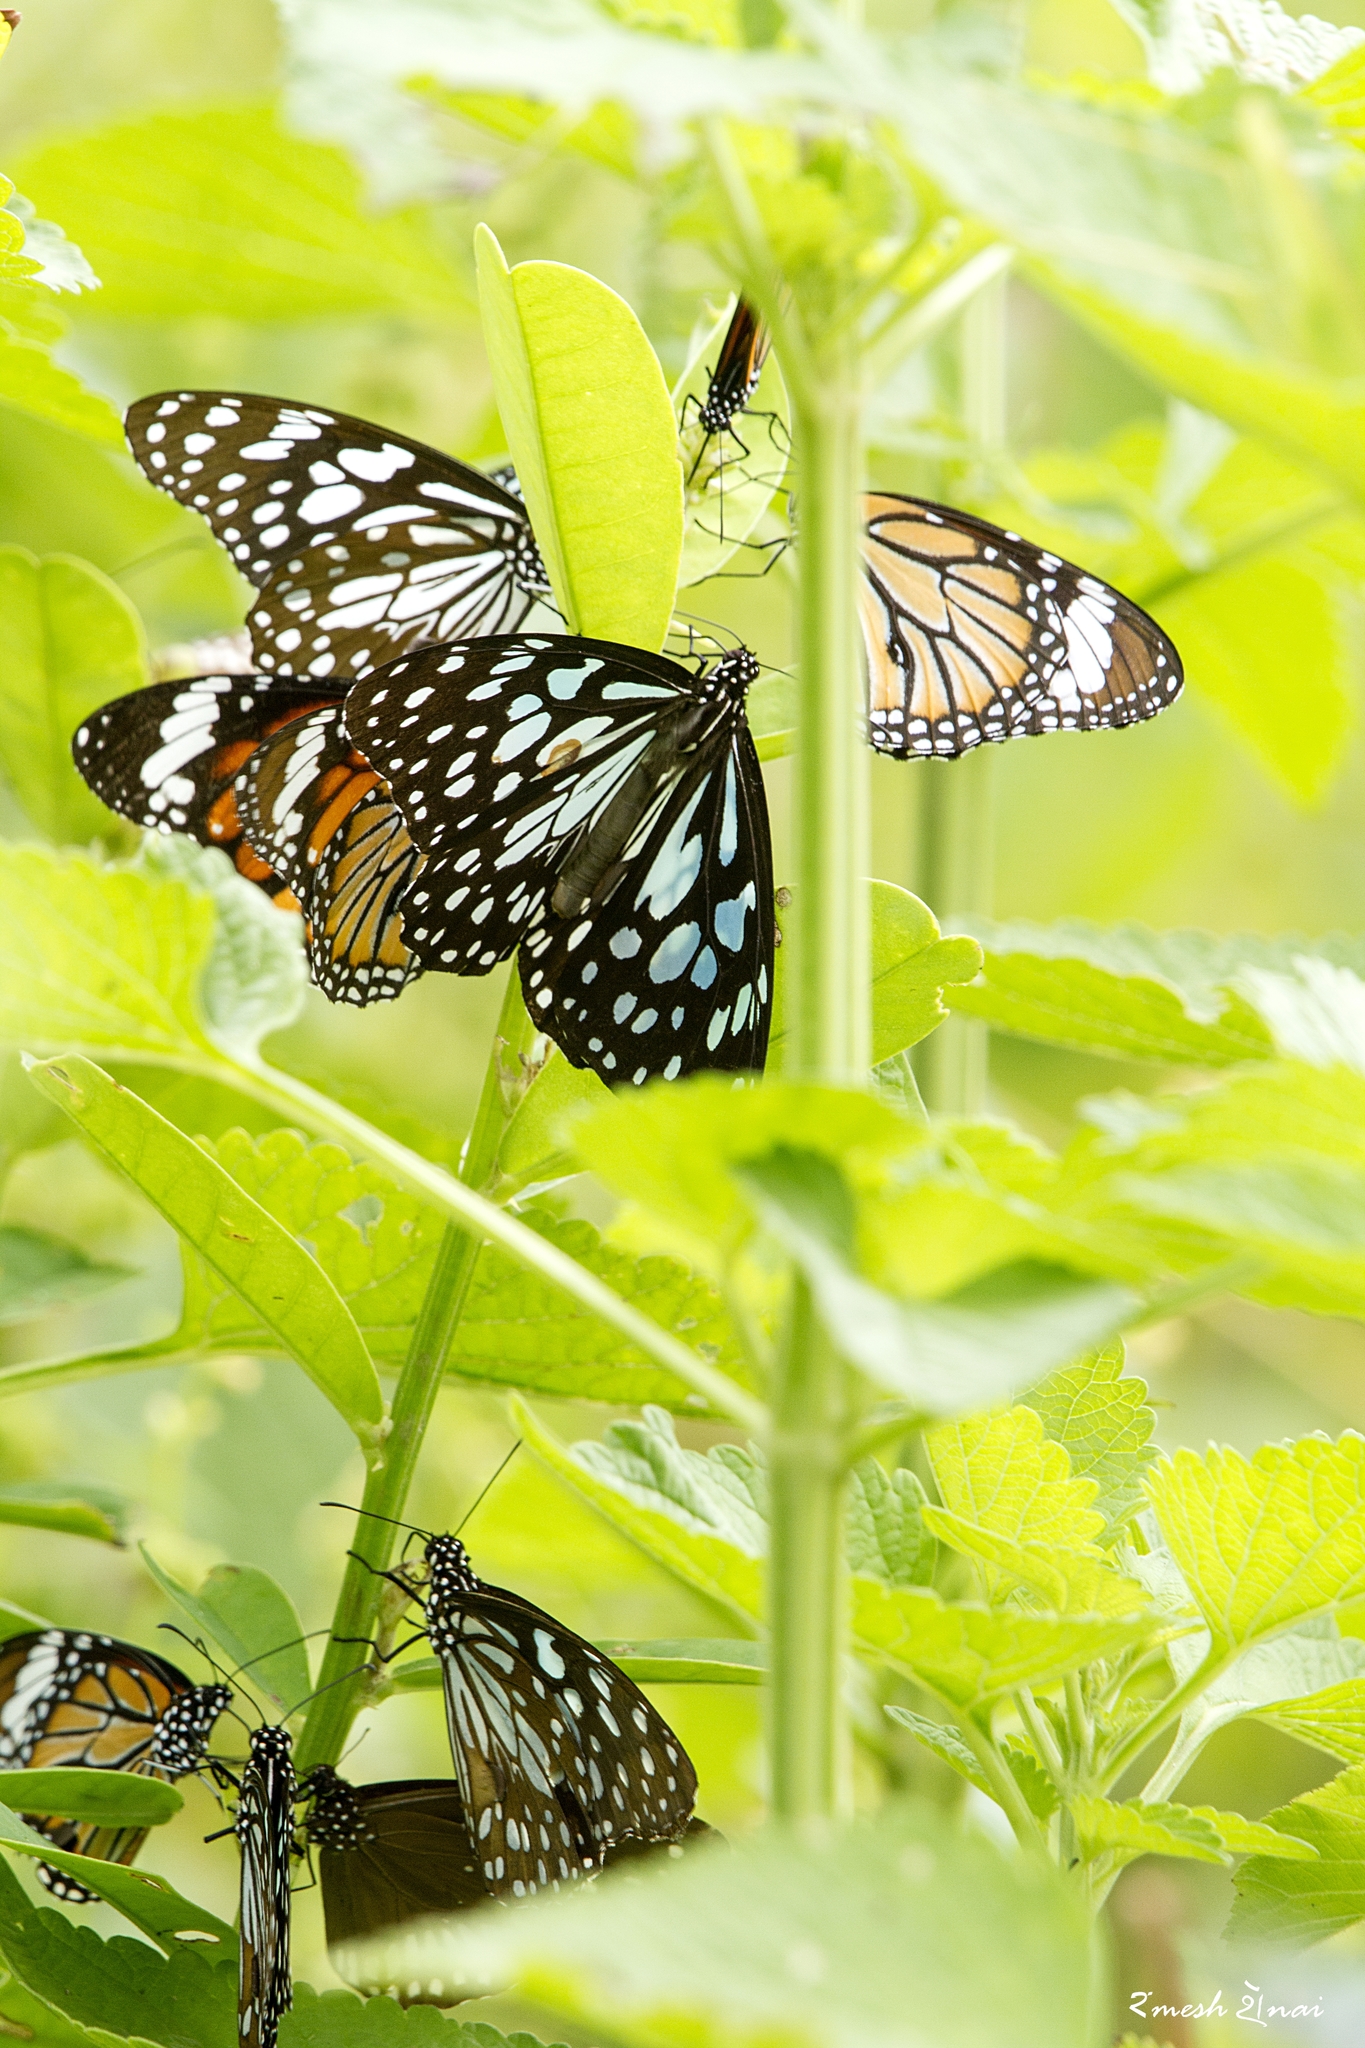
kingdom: Animalia
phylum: Arthropoda
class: Insecta
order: Lepidoptera
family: Nymphalidae
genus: Tirumala
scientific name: Tirumala limniace
